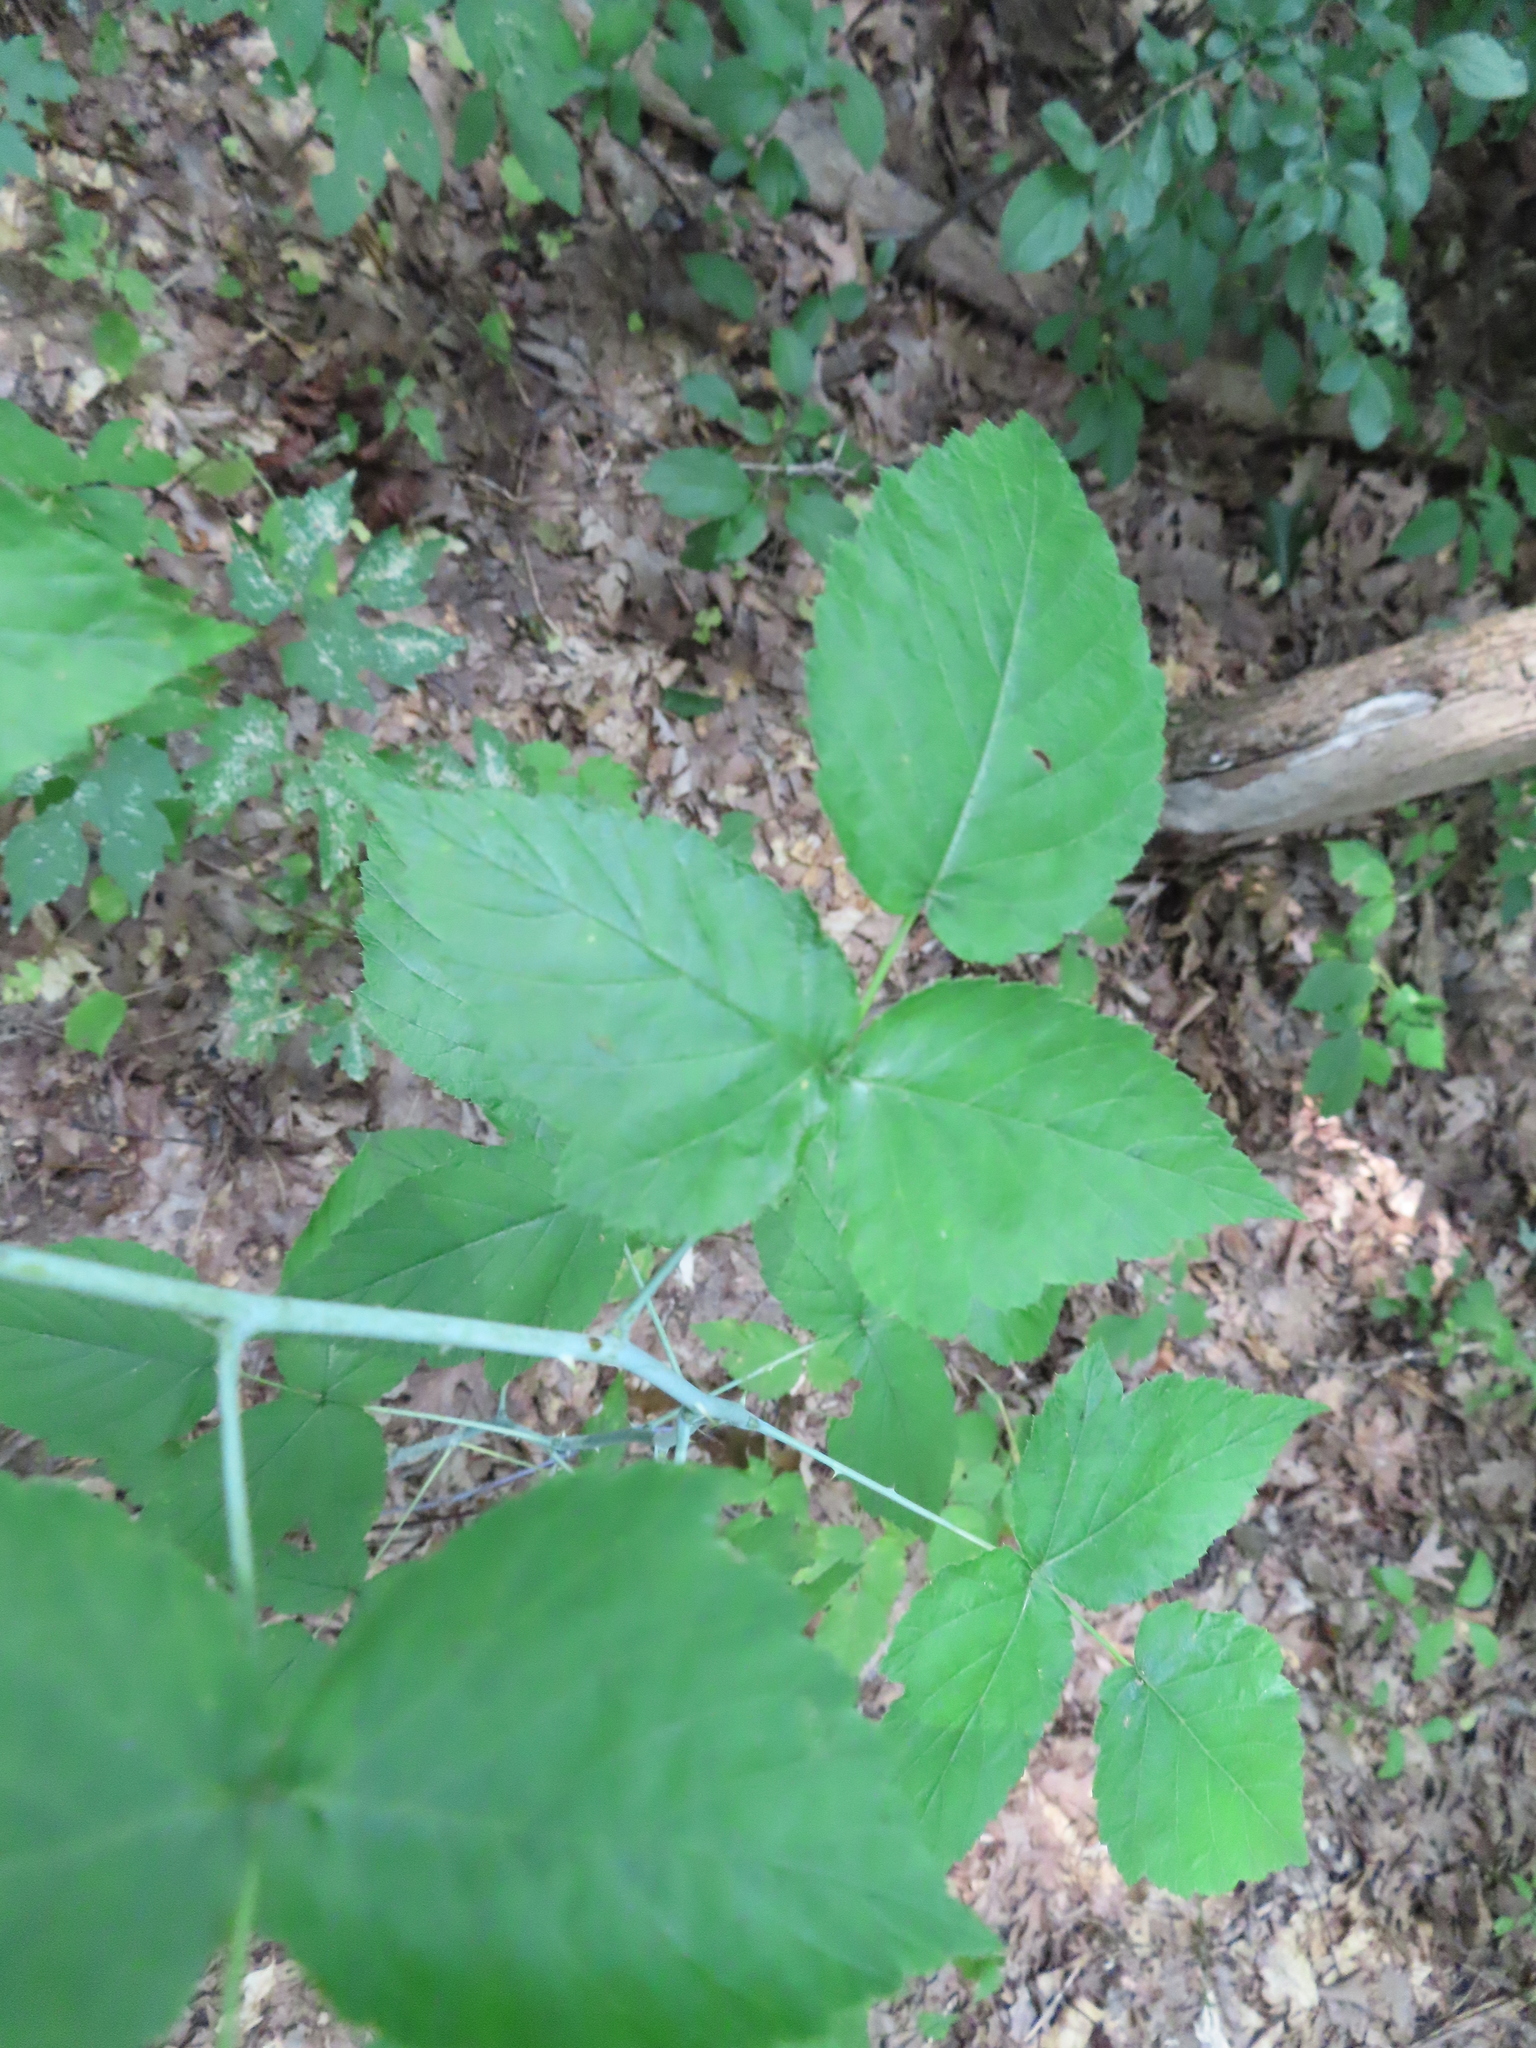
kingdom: Plantae
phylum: Tracheophyta
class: Magnoliopsida
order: Rosales
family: Rosaceae
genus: Rubus
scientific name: Rubus occidentalis
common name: Black raspberry
